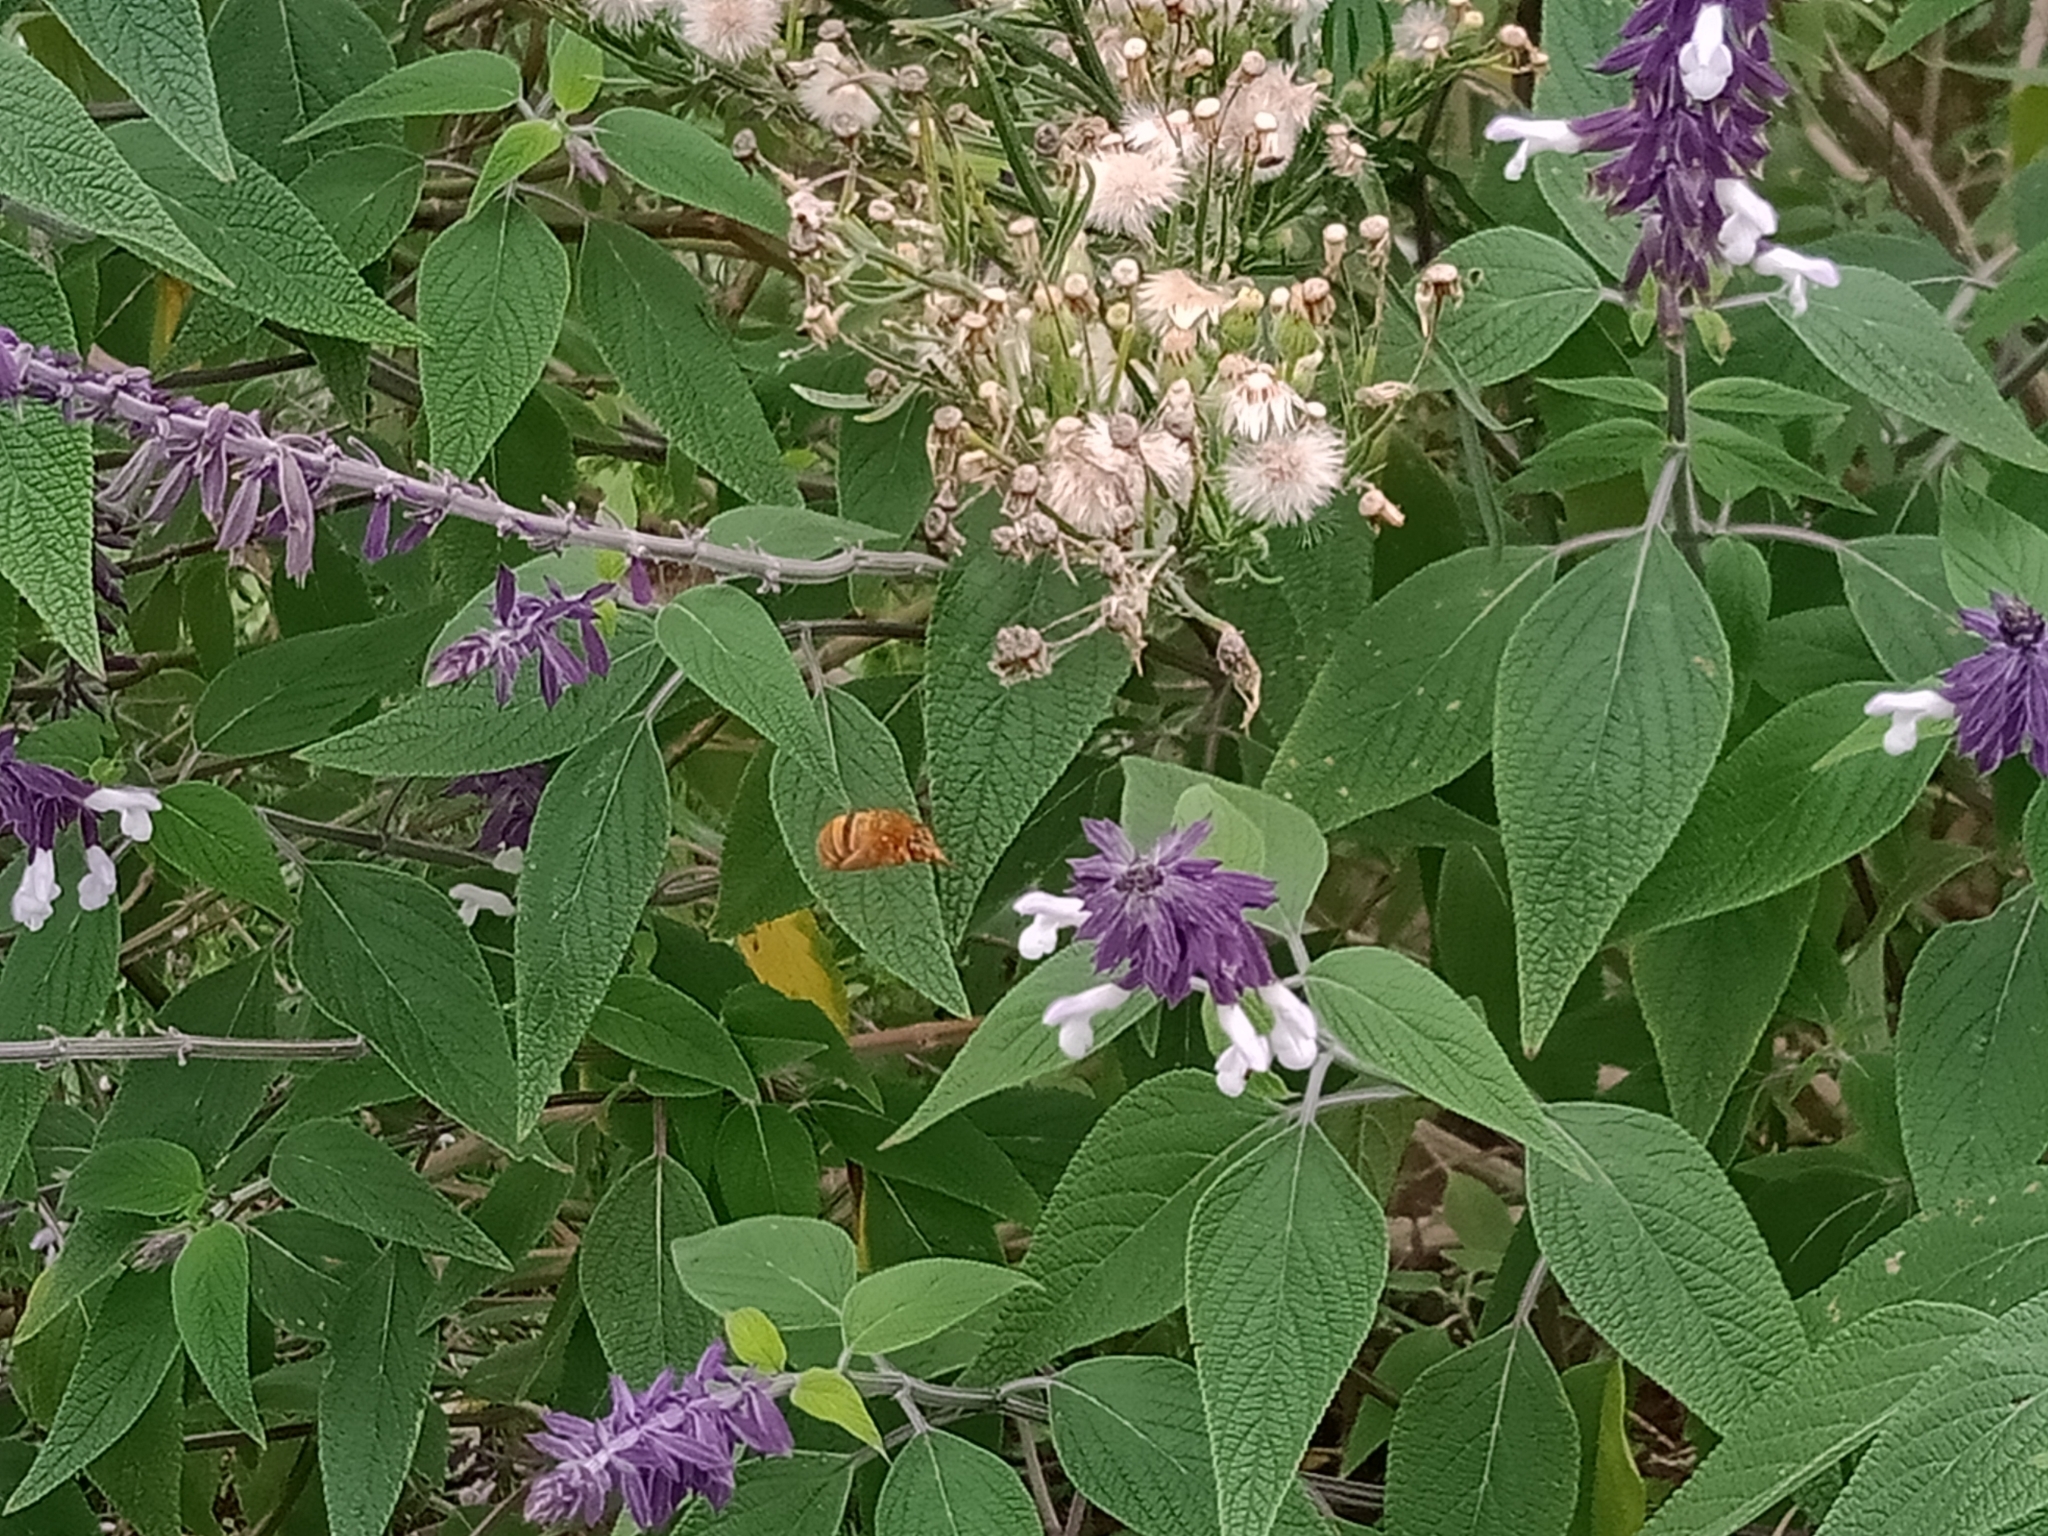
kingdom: Animalia
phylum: Arthropoda
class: Insecta
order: Hymenoptera
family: Apidae
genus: Amegilla
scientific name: Amegilla bombiformis
